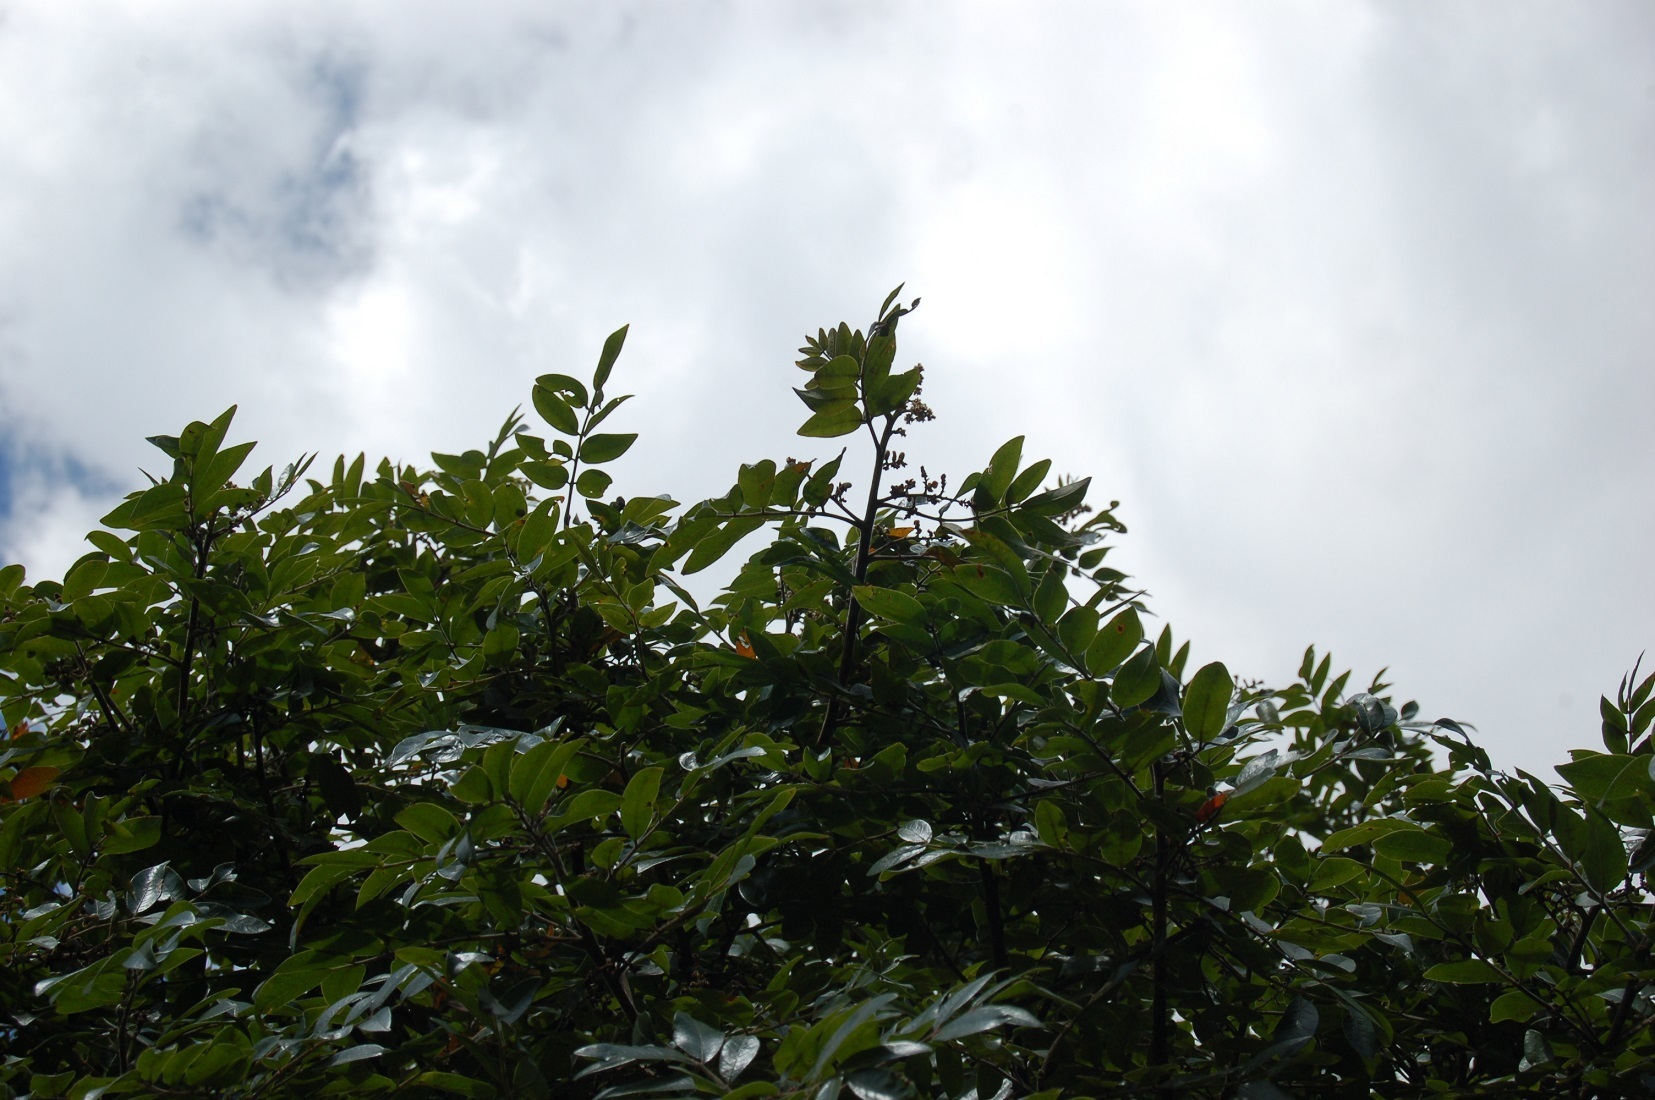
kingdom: Plantae
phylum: Tracheophyta
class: Magnoliopsida
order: Sapindales
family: Anacardiaceae
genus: Rhus
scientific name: Rhus schiedeana
